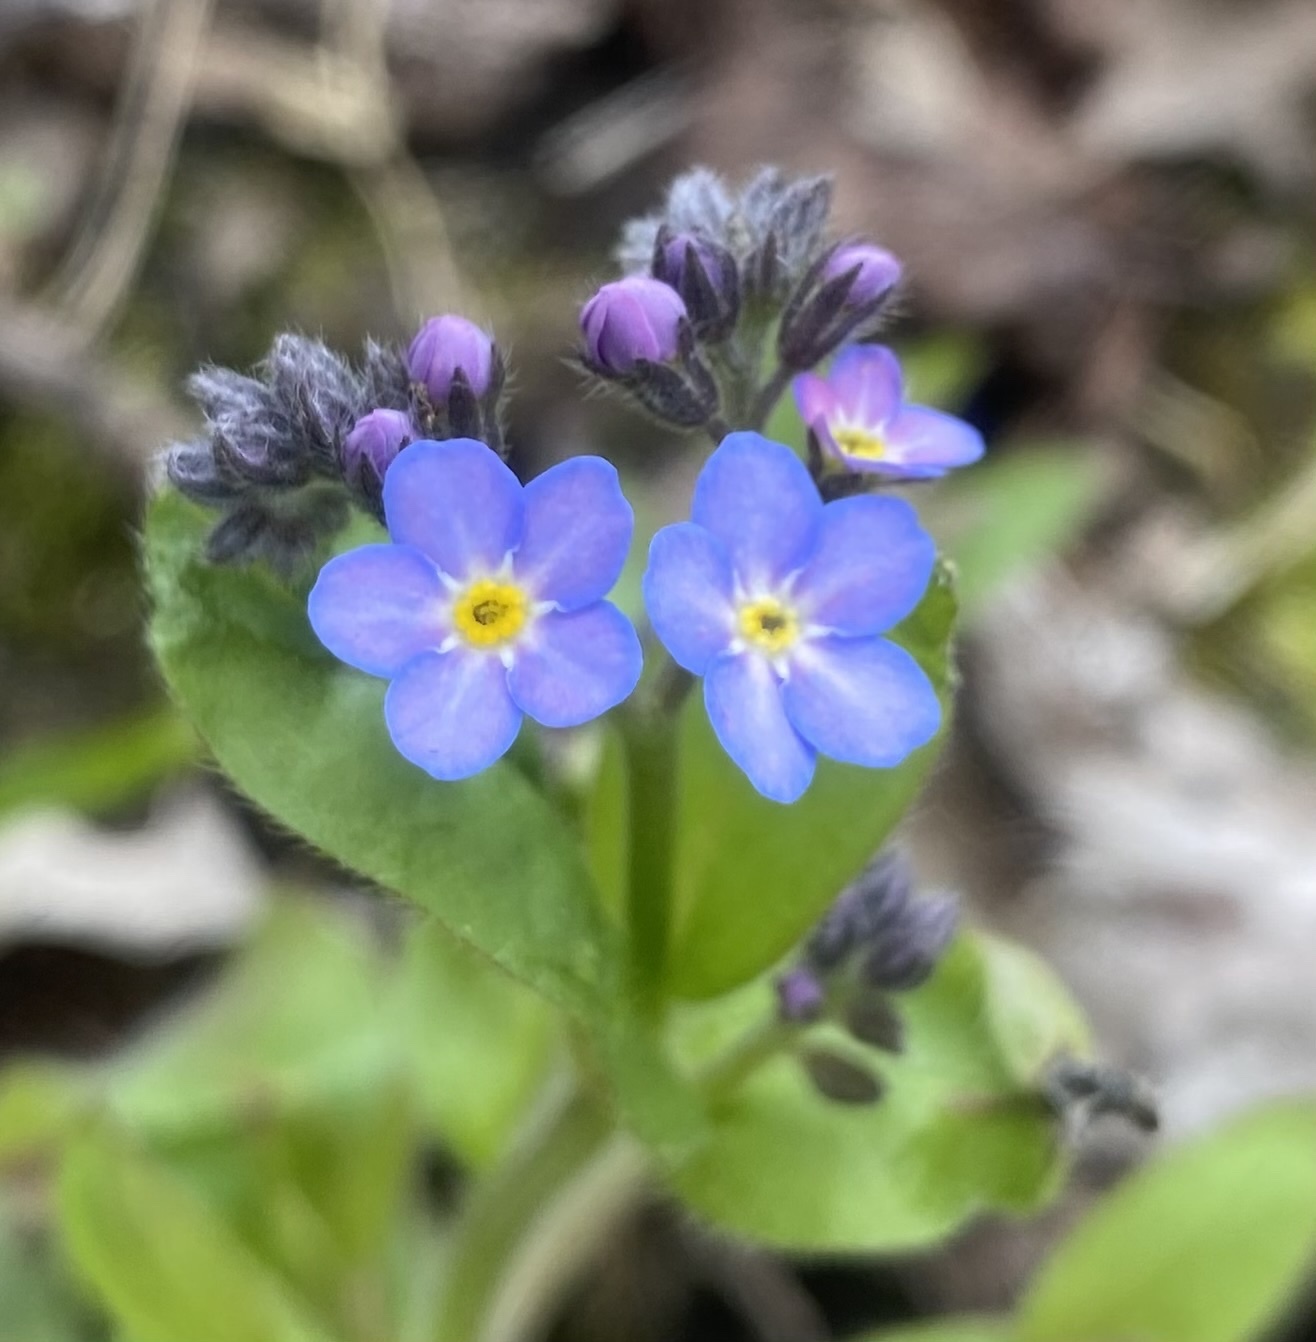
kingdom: Plantae
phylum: Tracheophyta
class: Magnoliopsida
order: Boraginales
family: Boraginaceae
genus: Myosotis
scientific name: Myosotis sylvatica
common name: Wood forget-me-not
